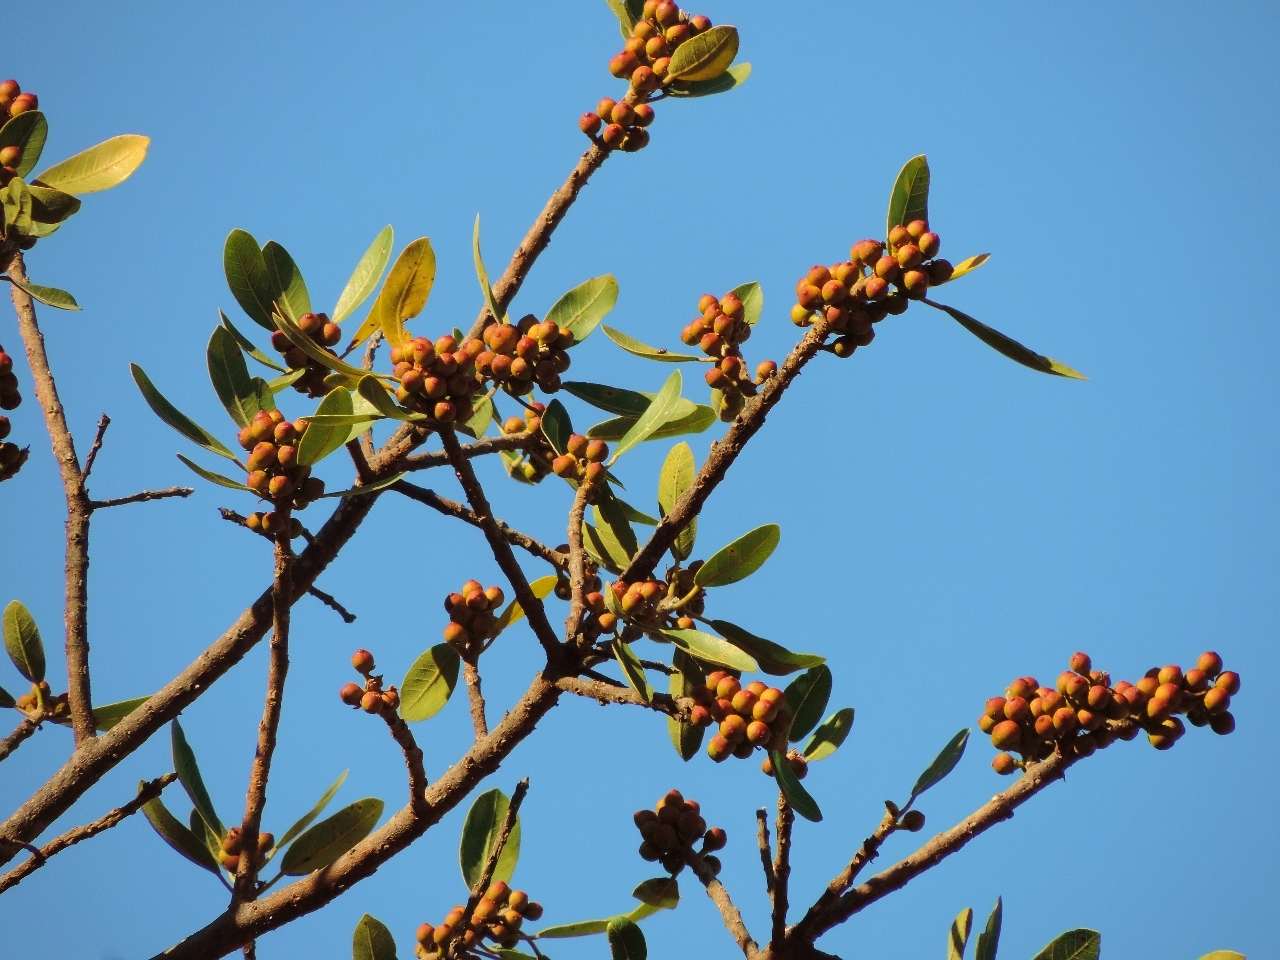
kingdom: Plantae
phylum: Tracheophyta
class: Magnoliopsida
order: Rosales
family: Moraceae
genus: Ficus
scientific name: Ficus thonningii
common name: Fig
